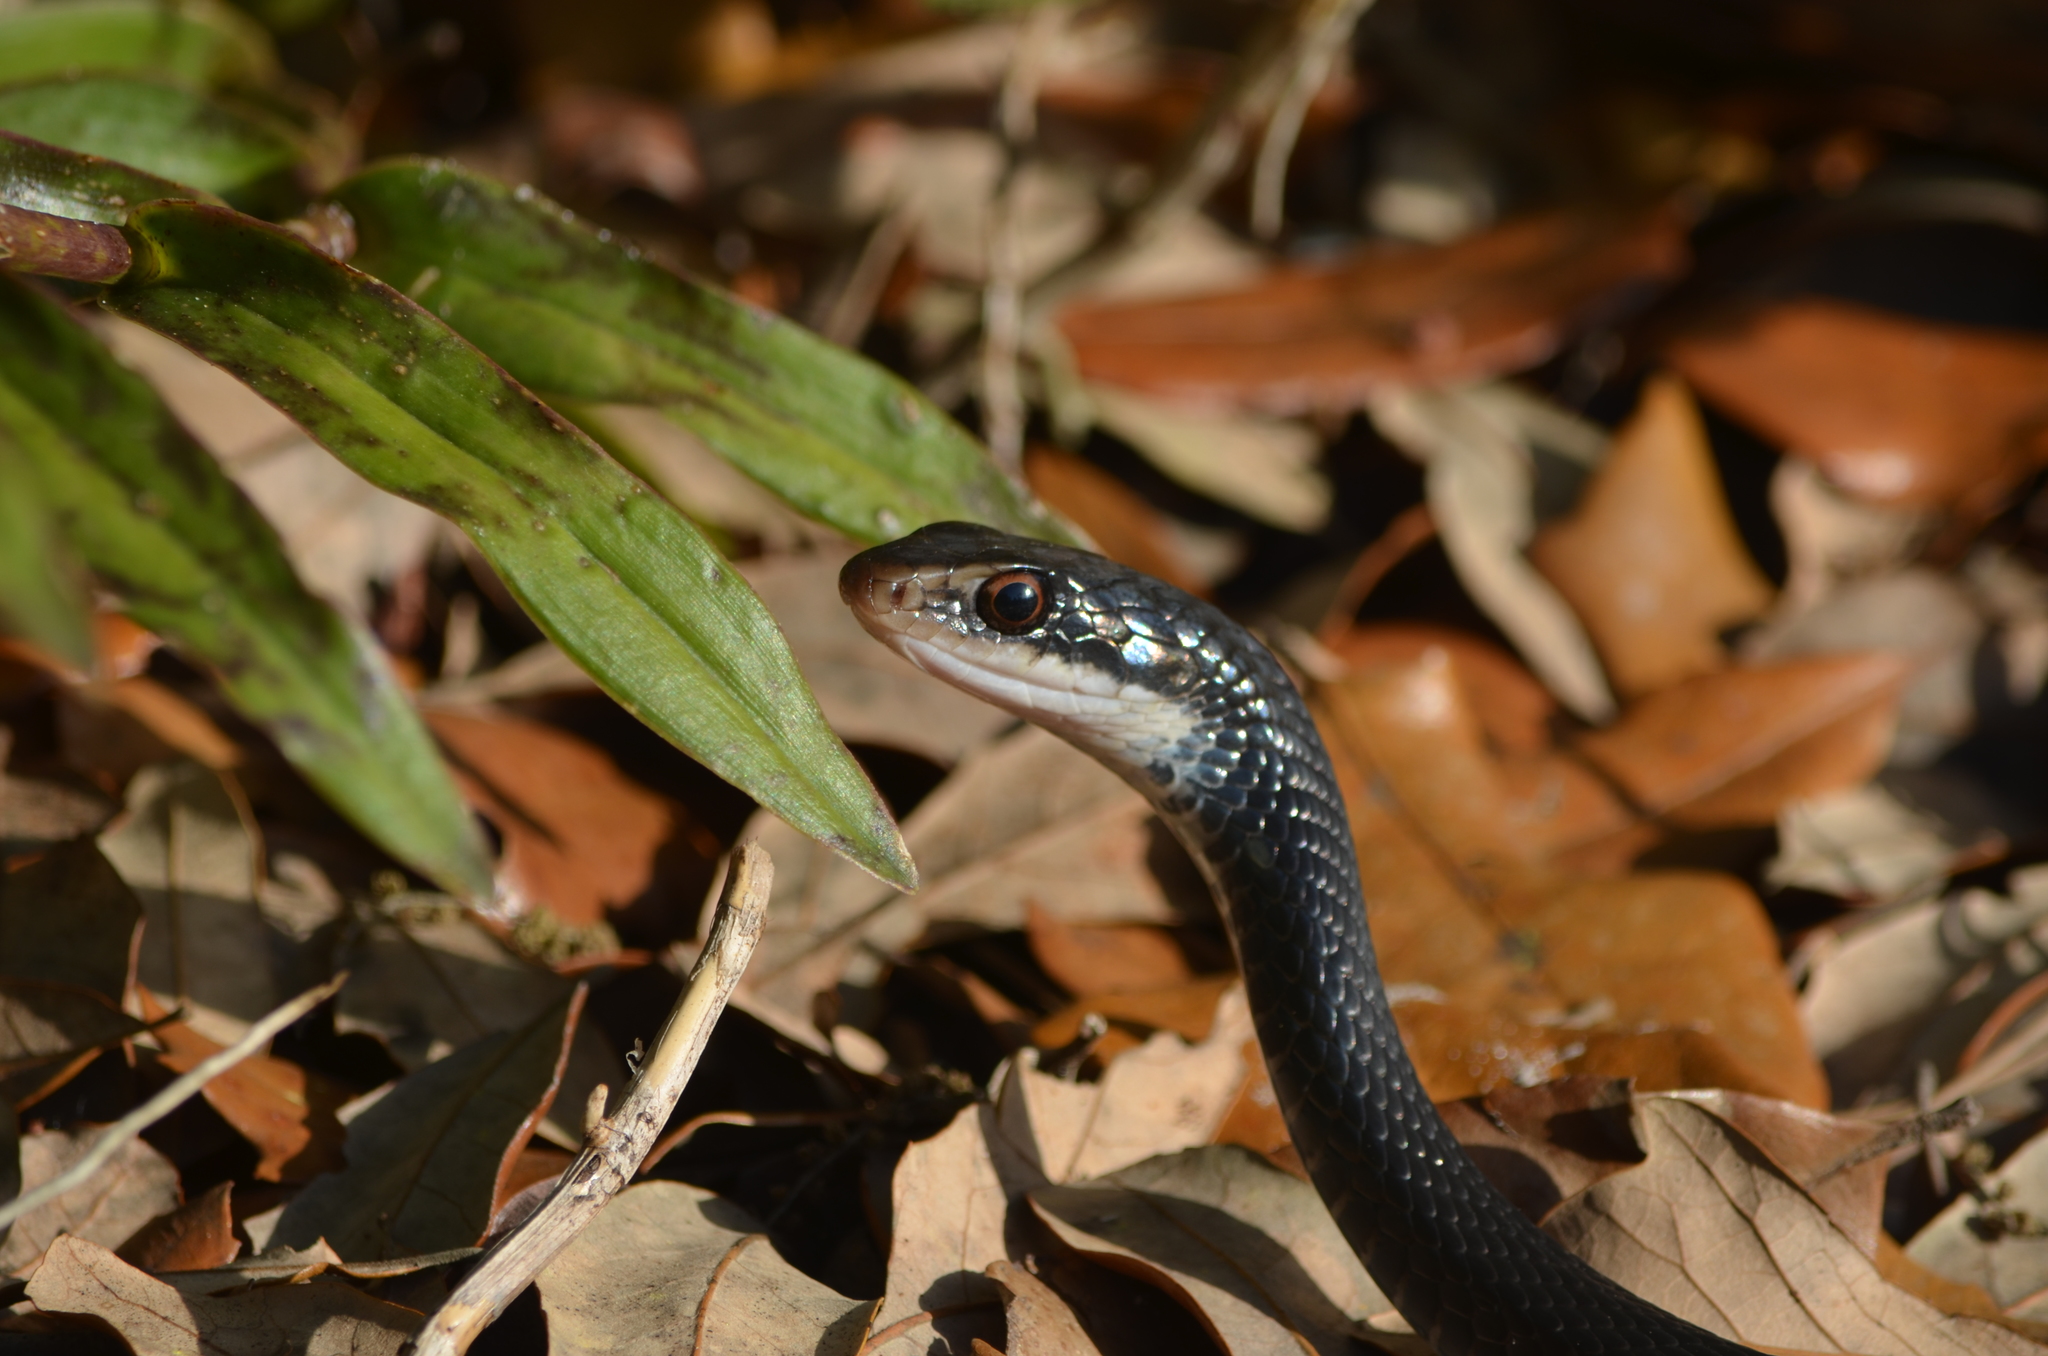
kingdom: Animalia
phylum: Chordata
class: Squamata
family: Colubridae
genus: Coluber
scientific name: Coluber constrictor
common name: Eastern racer
